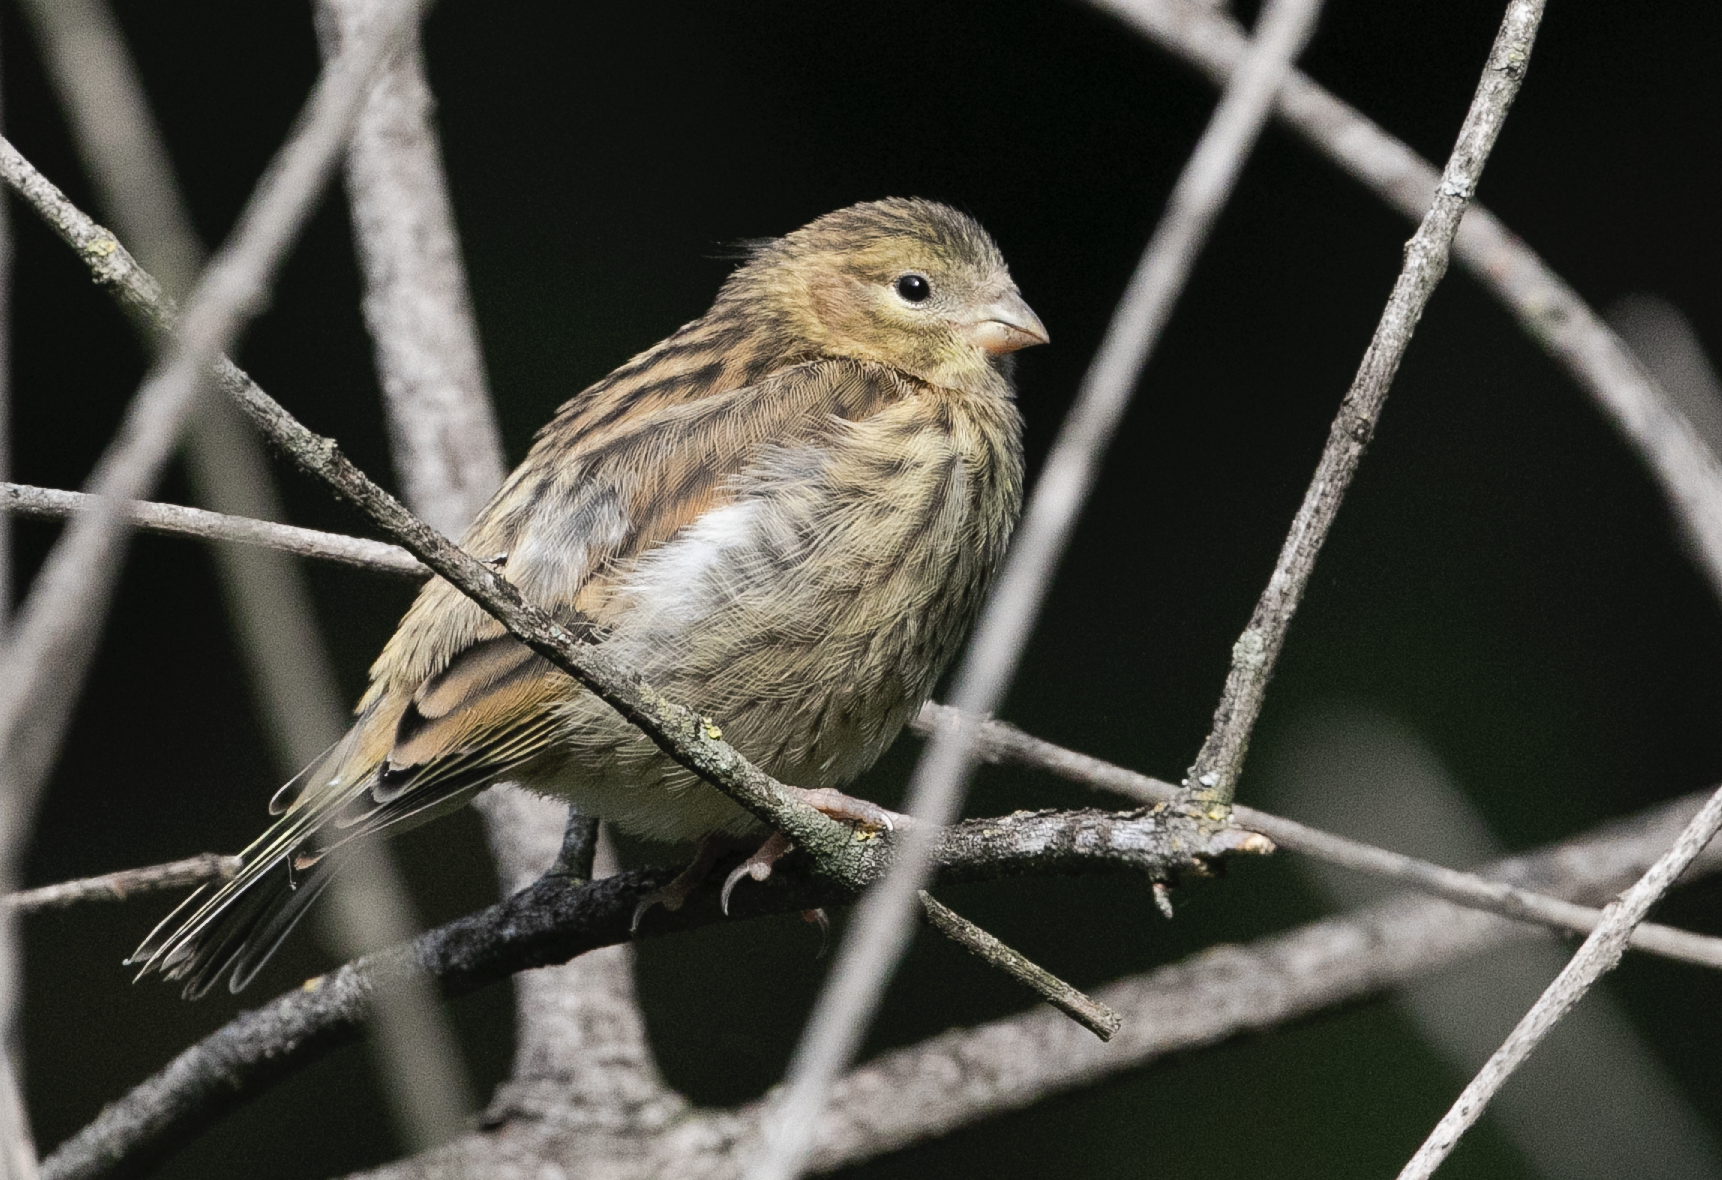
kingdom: Animalia
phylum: Chordata
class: Aves
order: Passeriformes
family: Fringillidae
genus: Serinus
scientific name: Serinus serinus
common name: European serin
